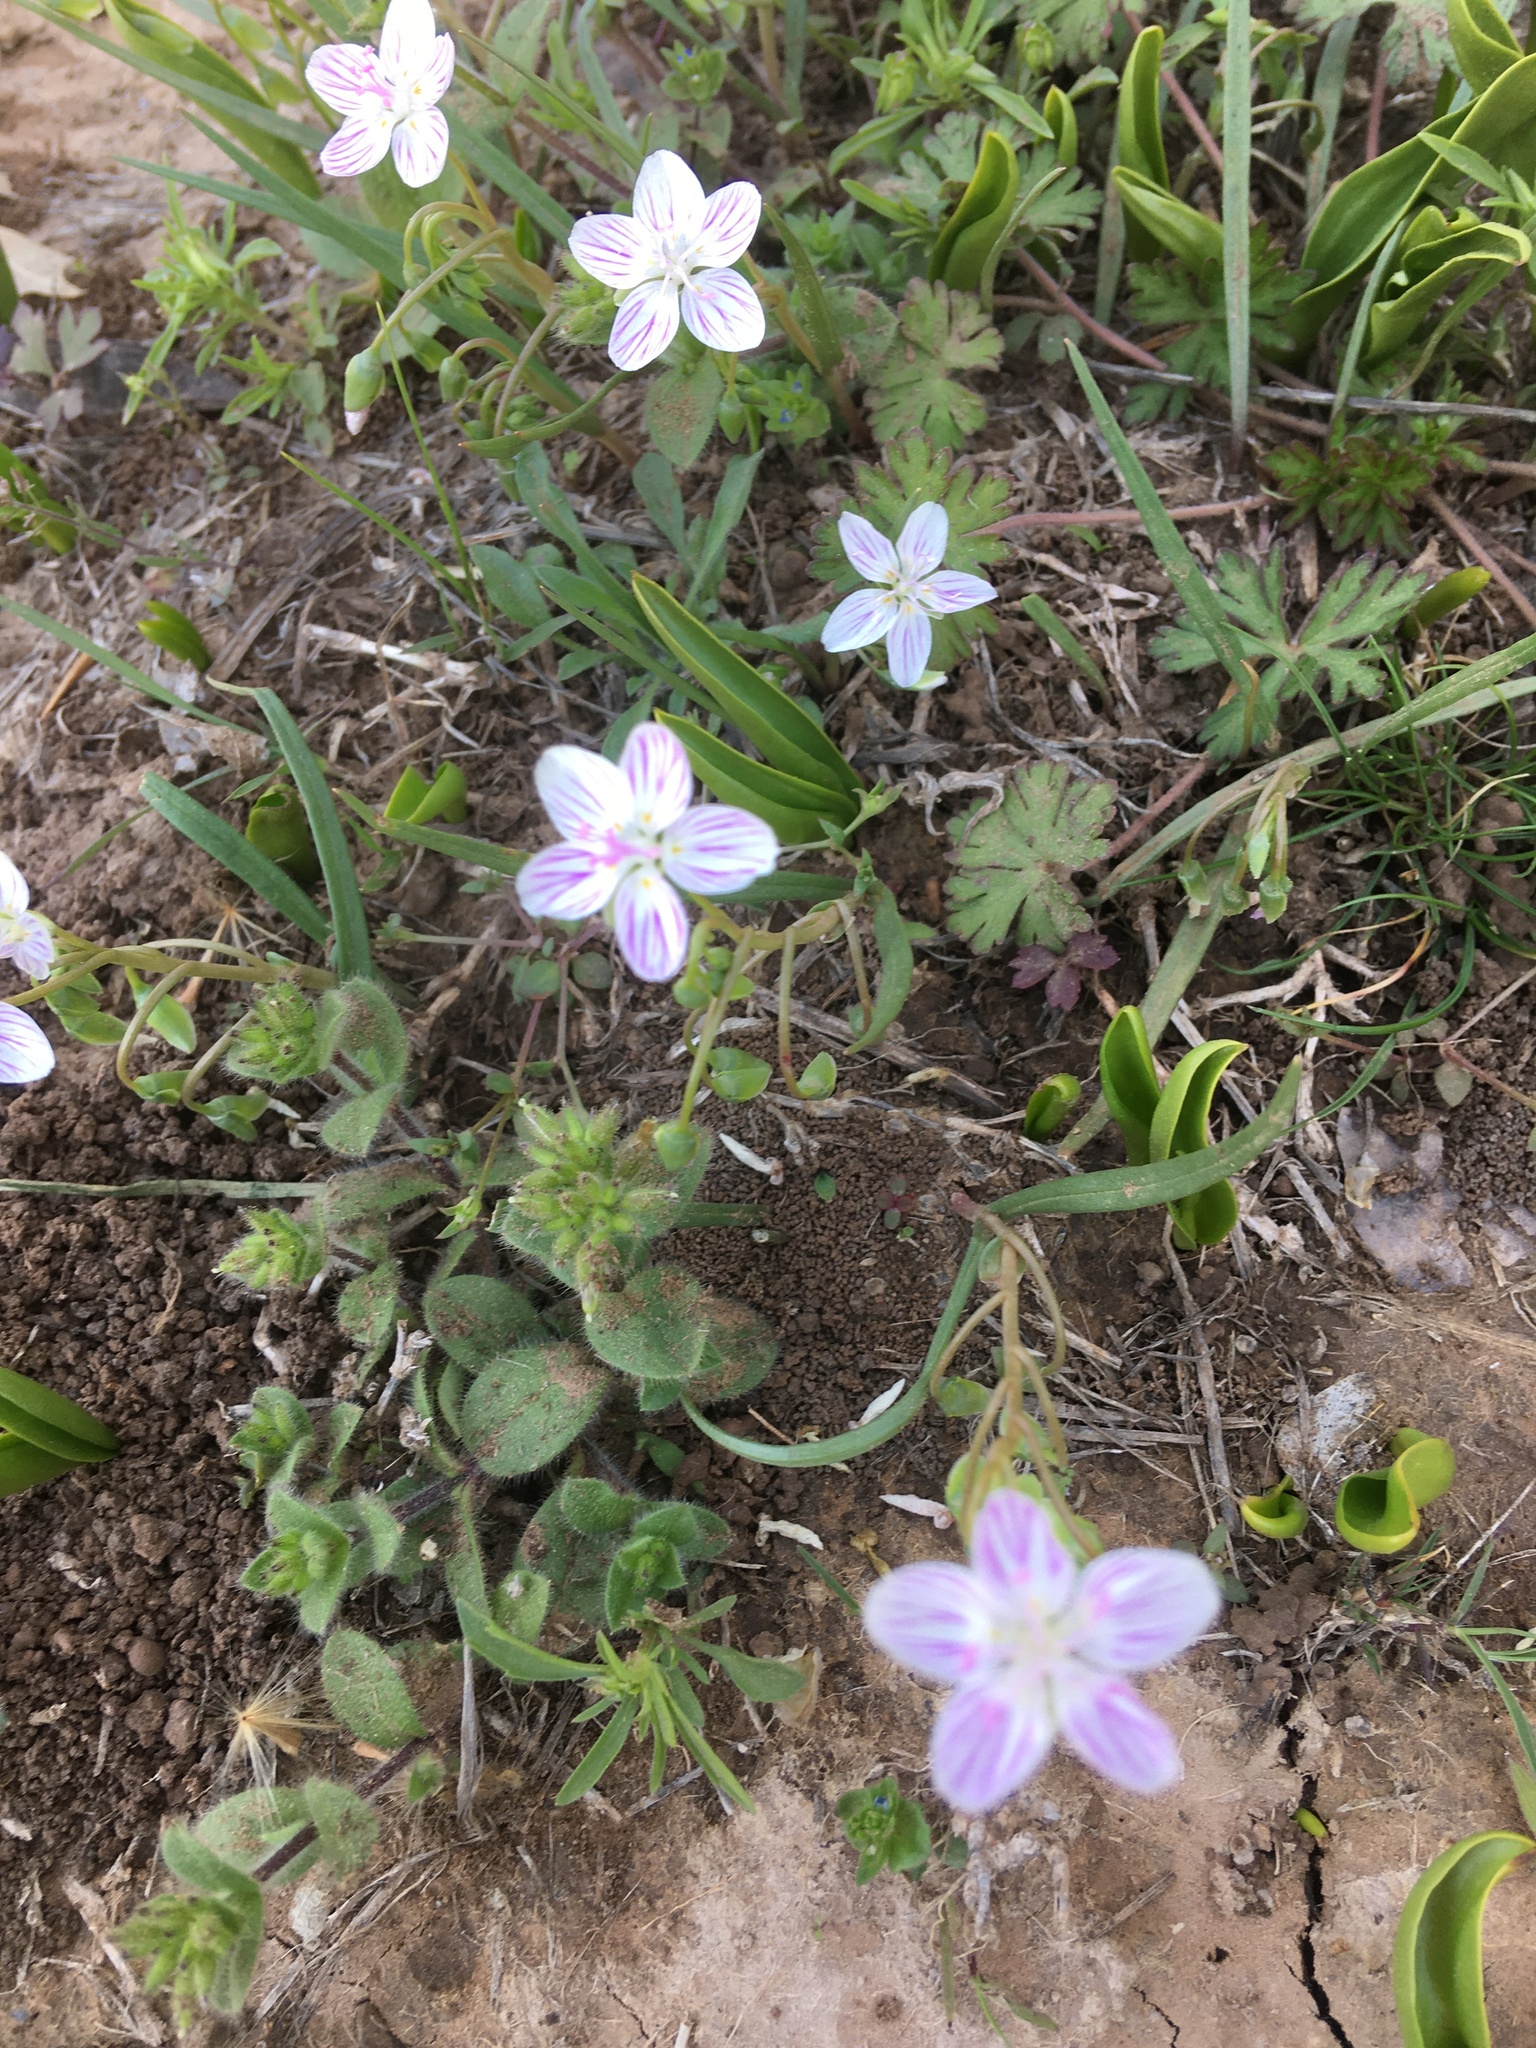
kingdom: Plantae
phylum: Tracheophyta
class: Magnoliopsida
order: Caryophyllales
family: Montiaceae
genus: Claytonia
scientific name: Claytonia virginica
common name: Virginia springbeauty
